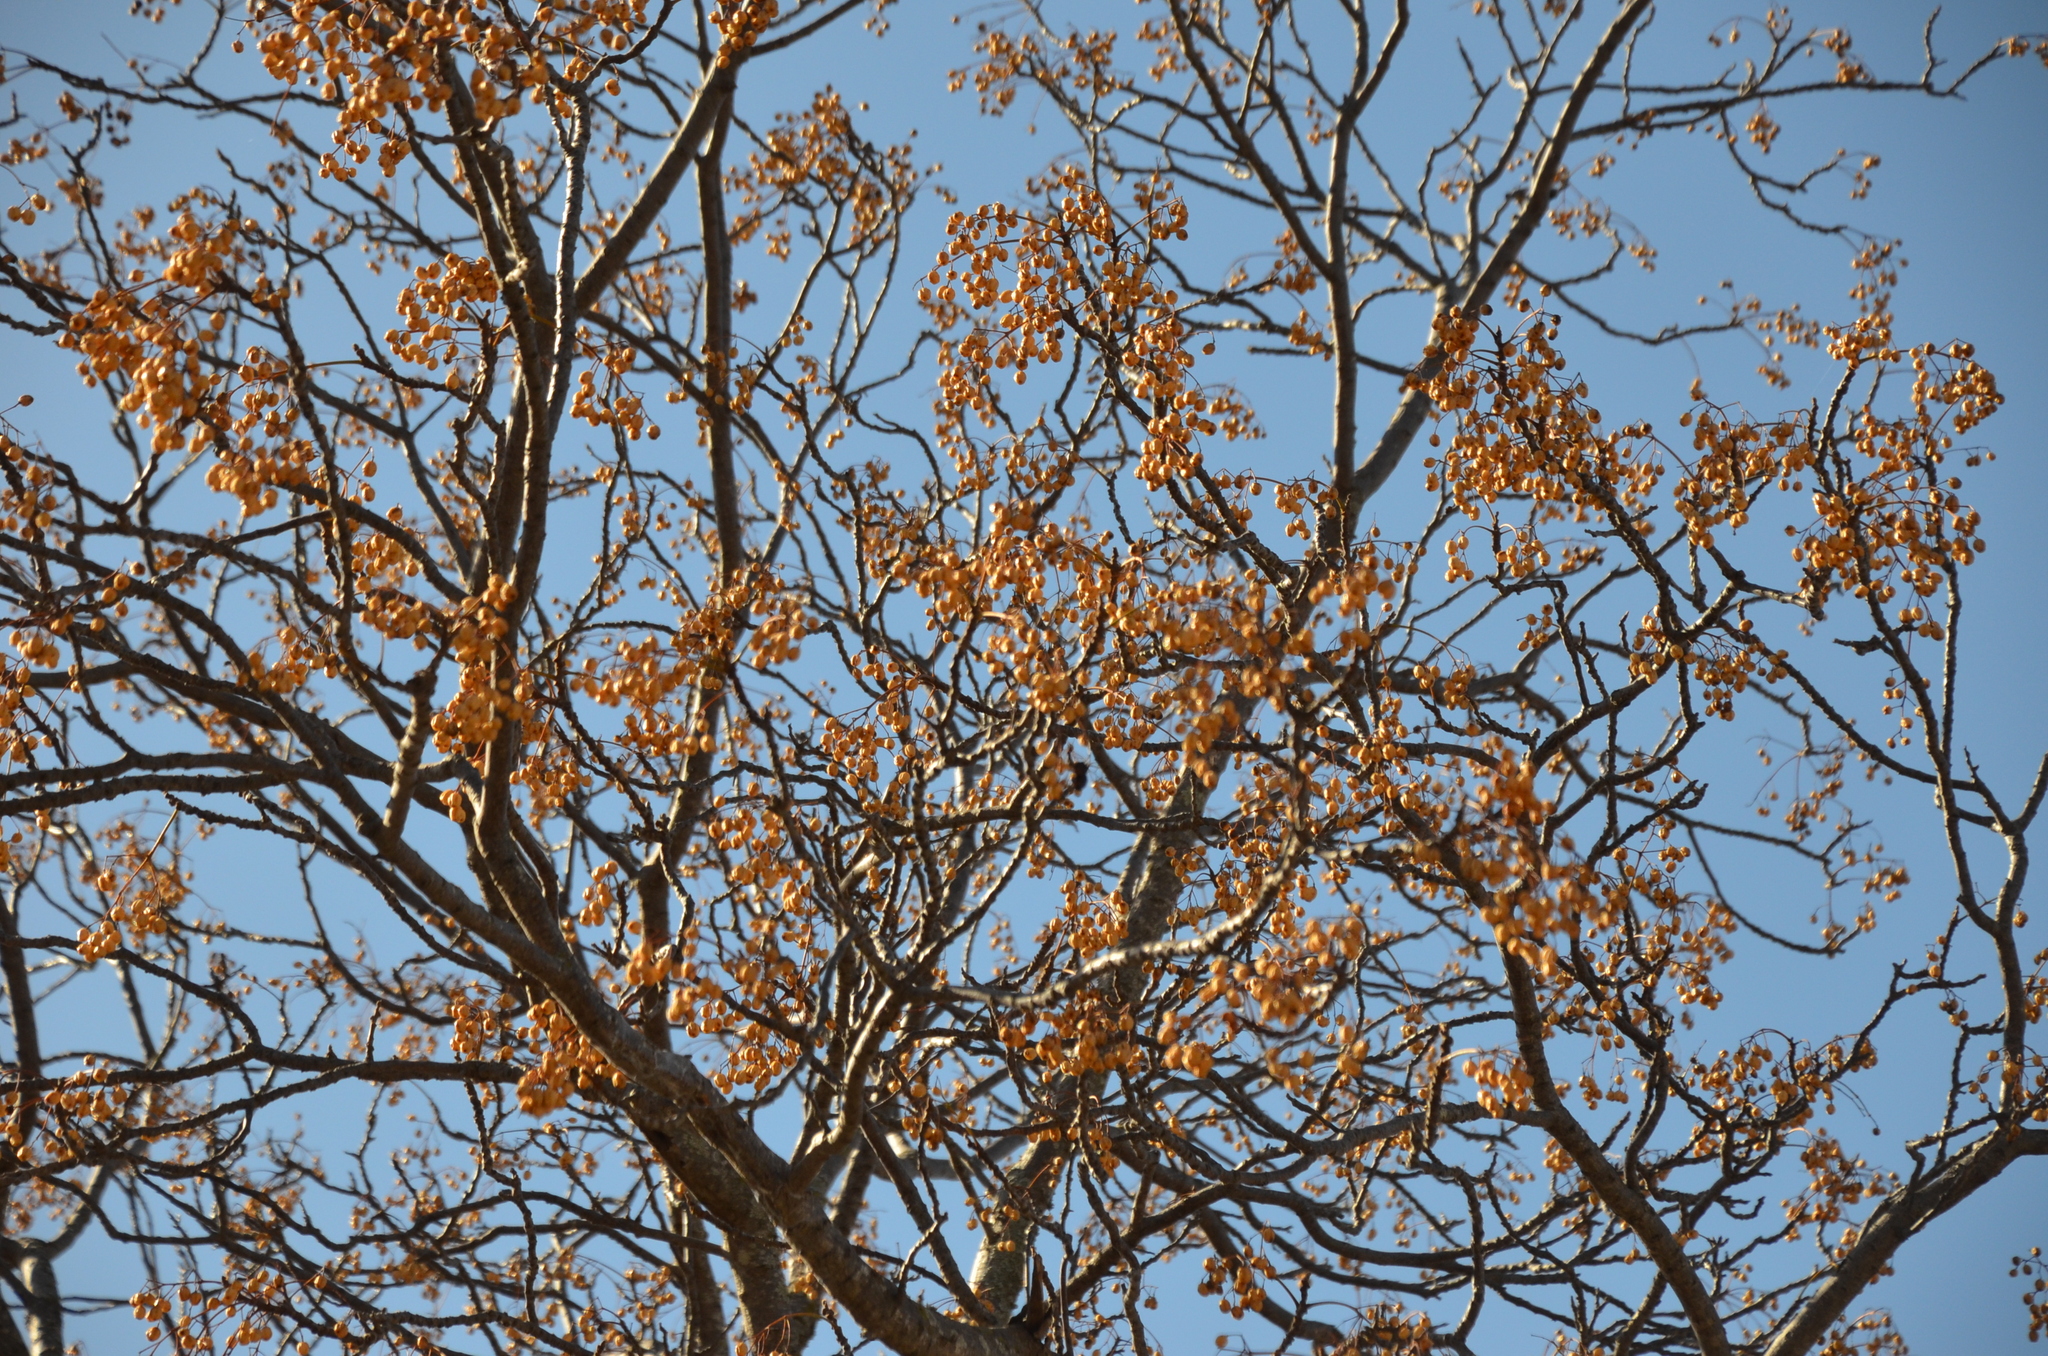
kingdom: Plantae
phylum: Tracheophyta
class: Magnoliopsida
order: Sapindales
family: Meliaceae
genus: Melia
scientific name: Melia azedarach
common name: Chinaberrytree
